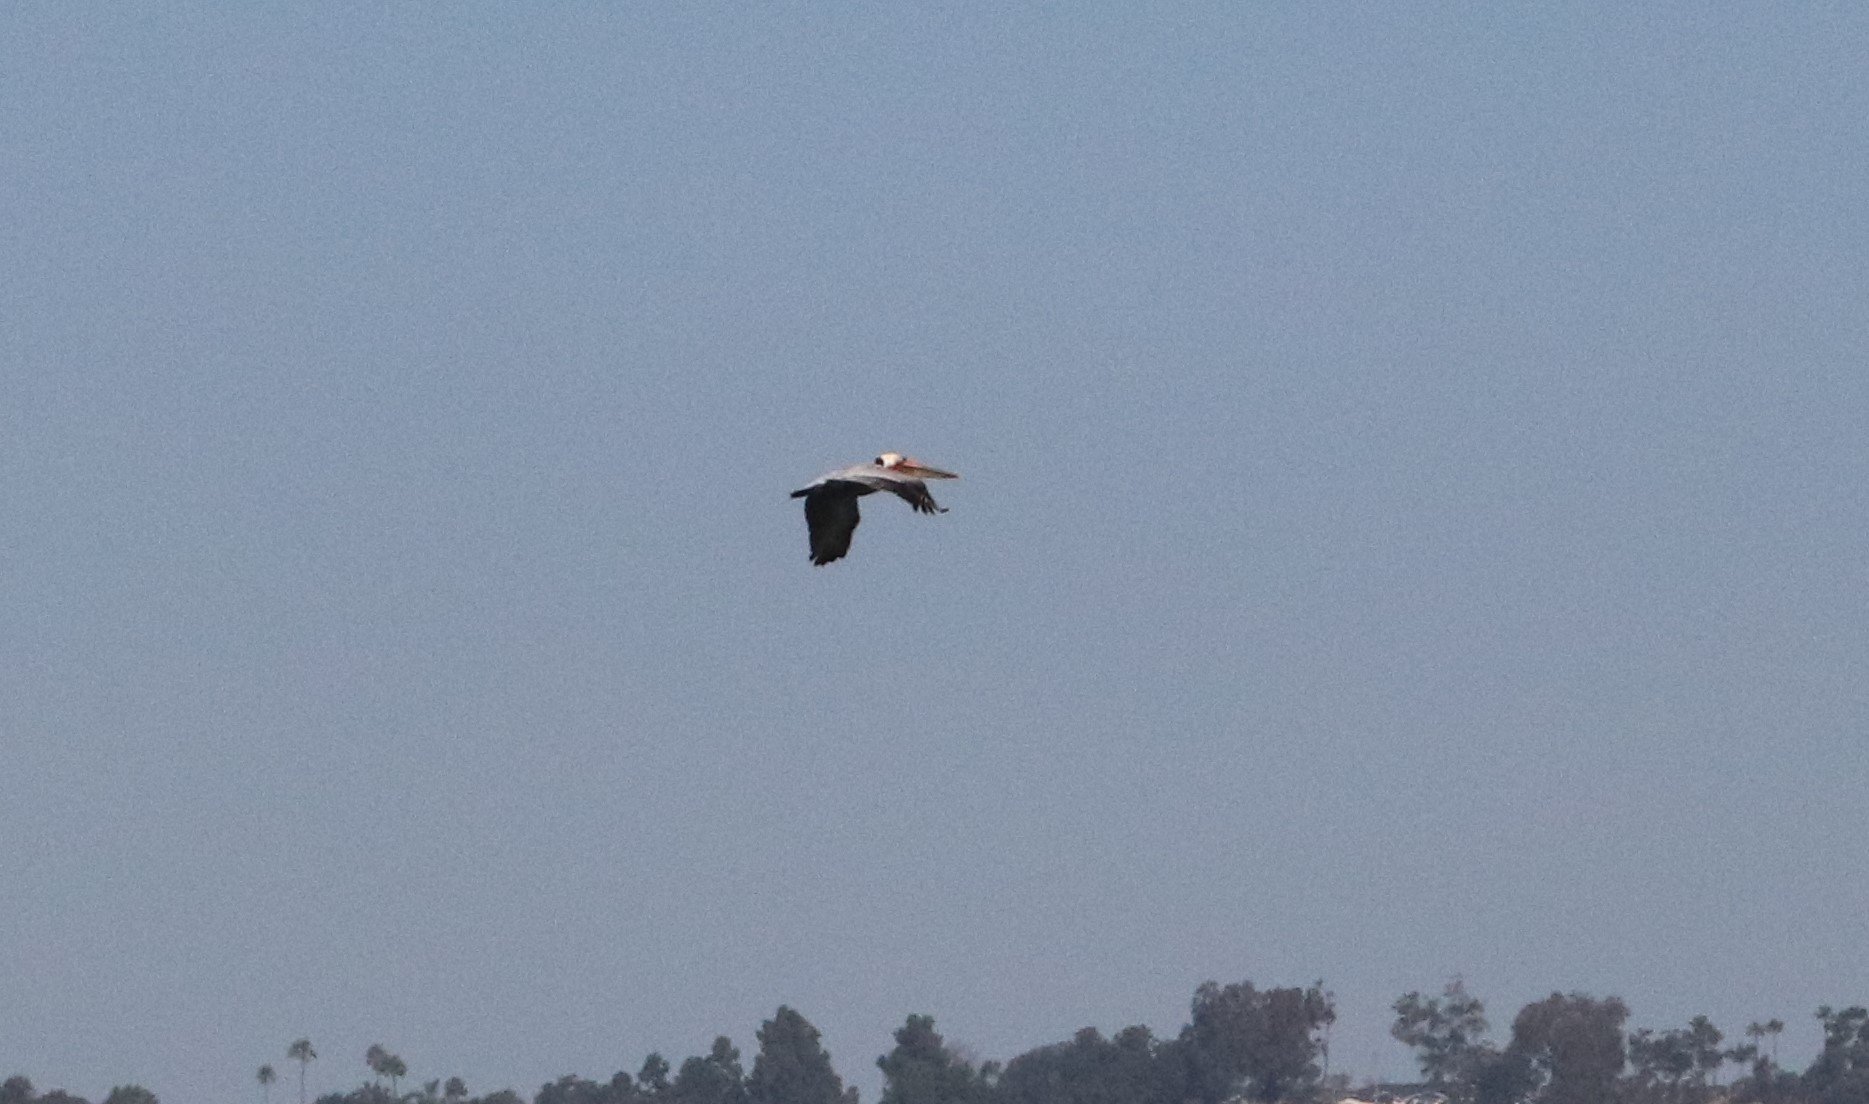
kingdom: Animalia
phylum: Chordata
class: Aves
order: Pelecaniformes
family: Pelecanidae
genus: Pelecanus
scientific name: Pelecanus occidentalis
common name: Brown pelican
